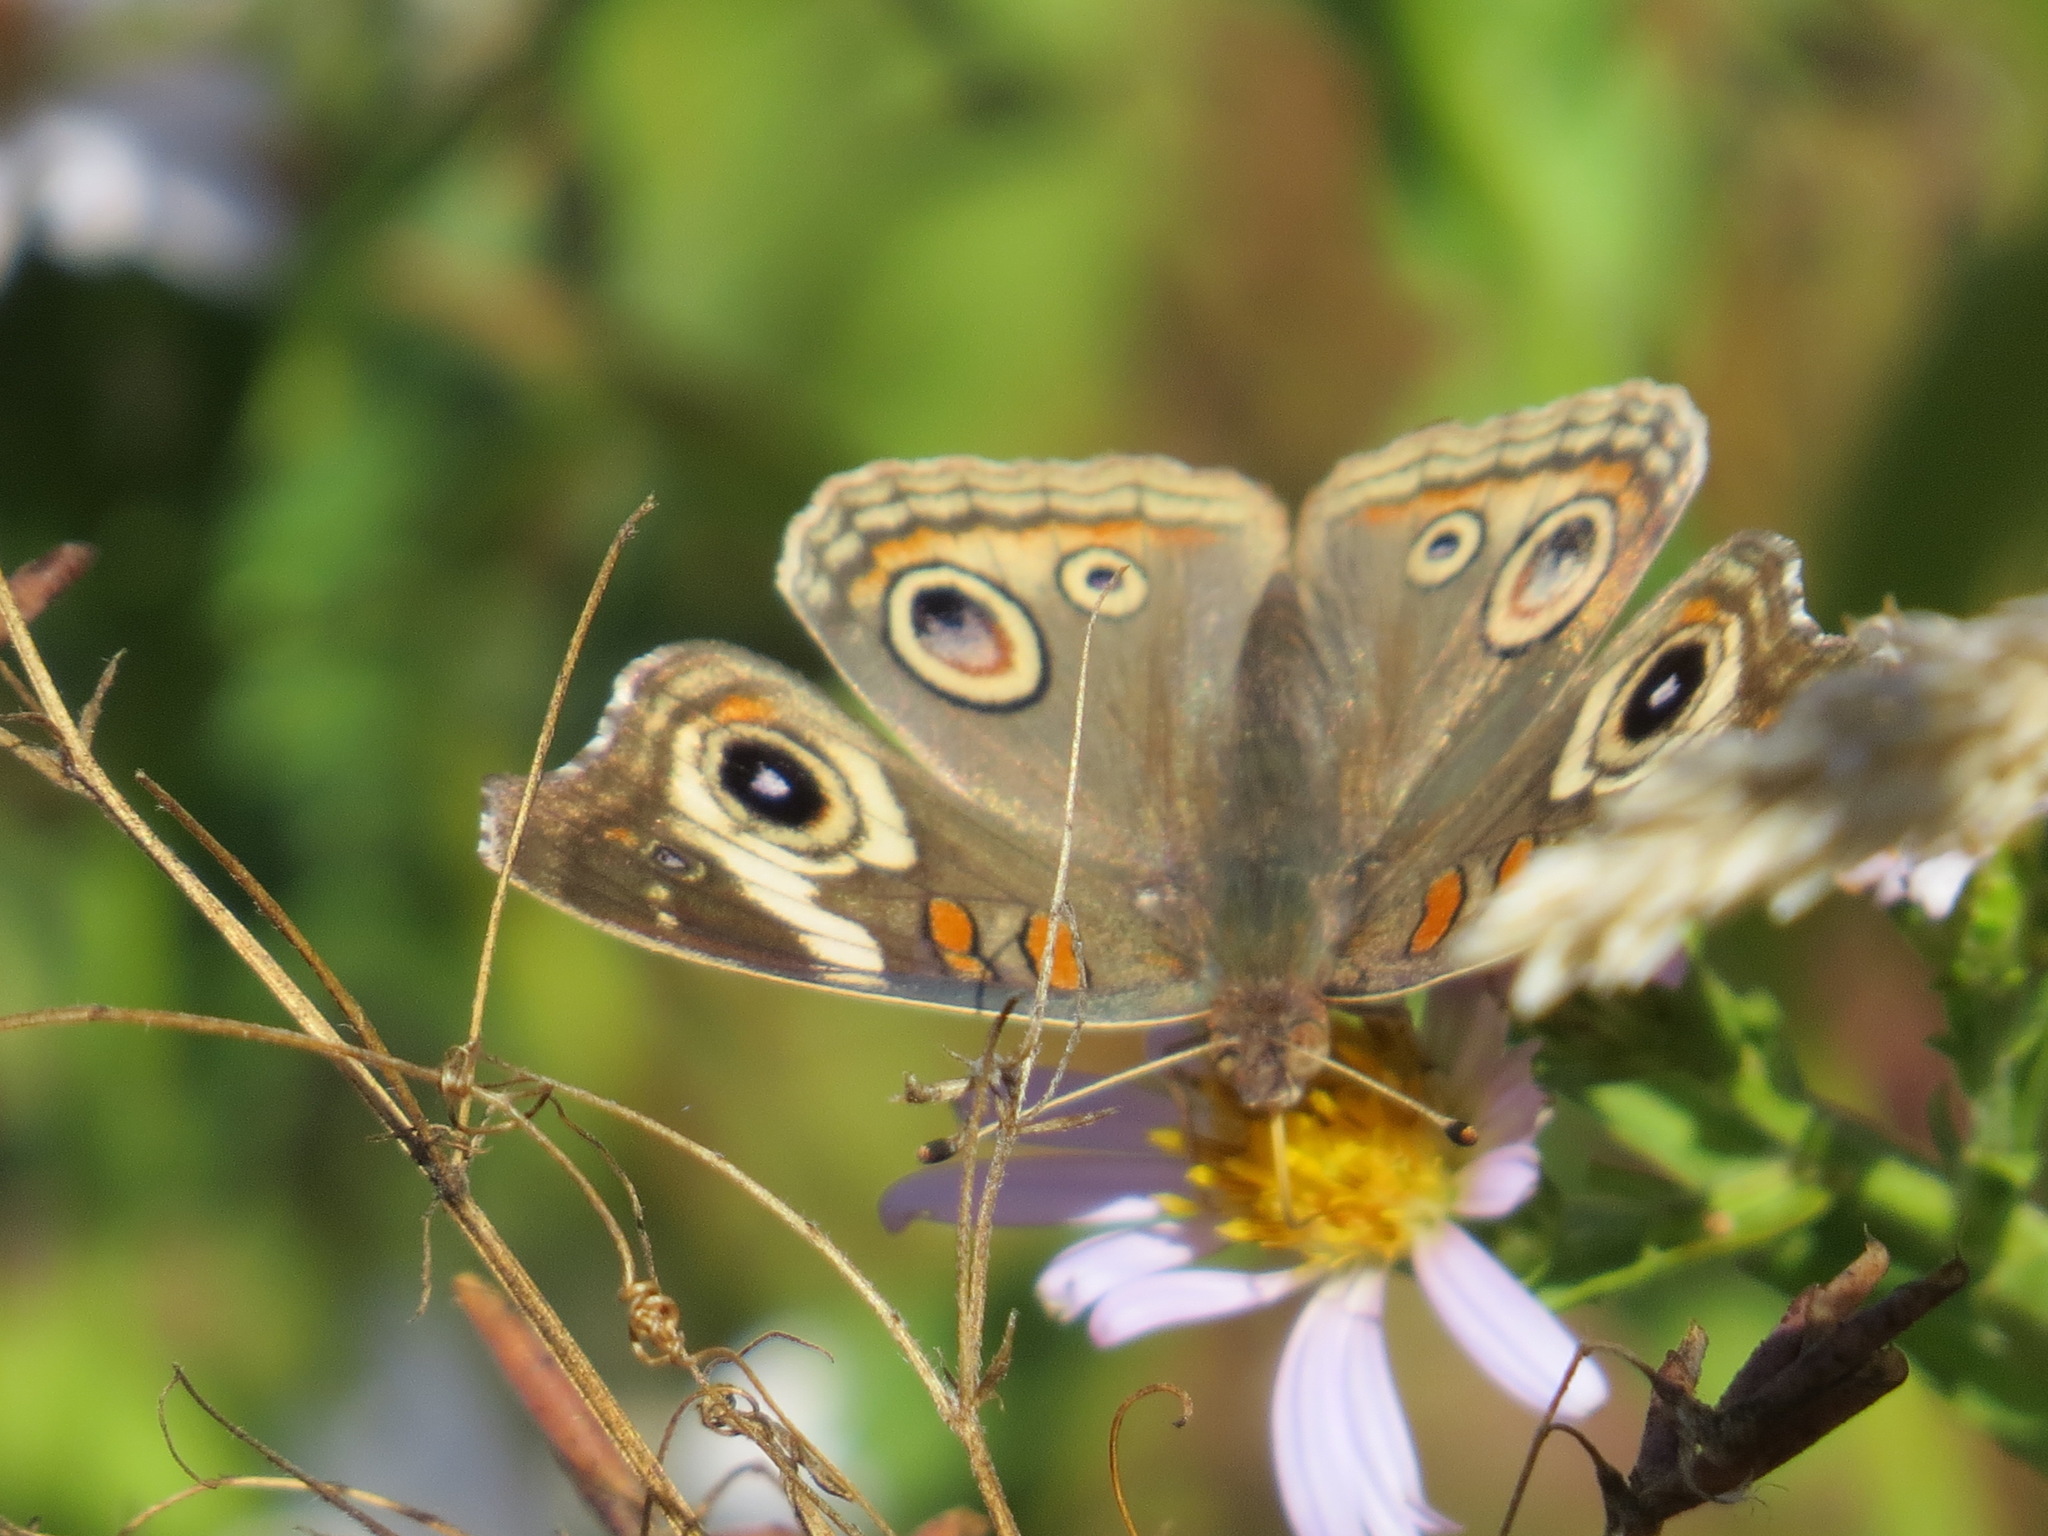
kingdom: Animalia
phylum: Arthropoda
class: Insecta
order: Lepidoptera
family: Nymphalidae
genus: Junonia
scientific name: Junonia grisea
